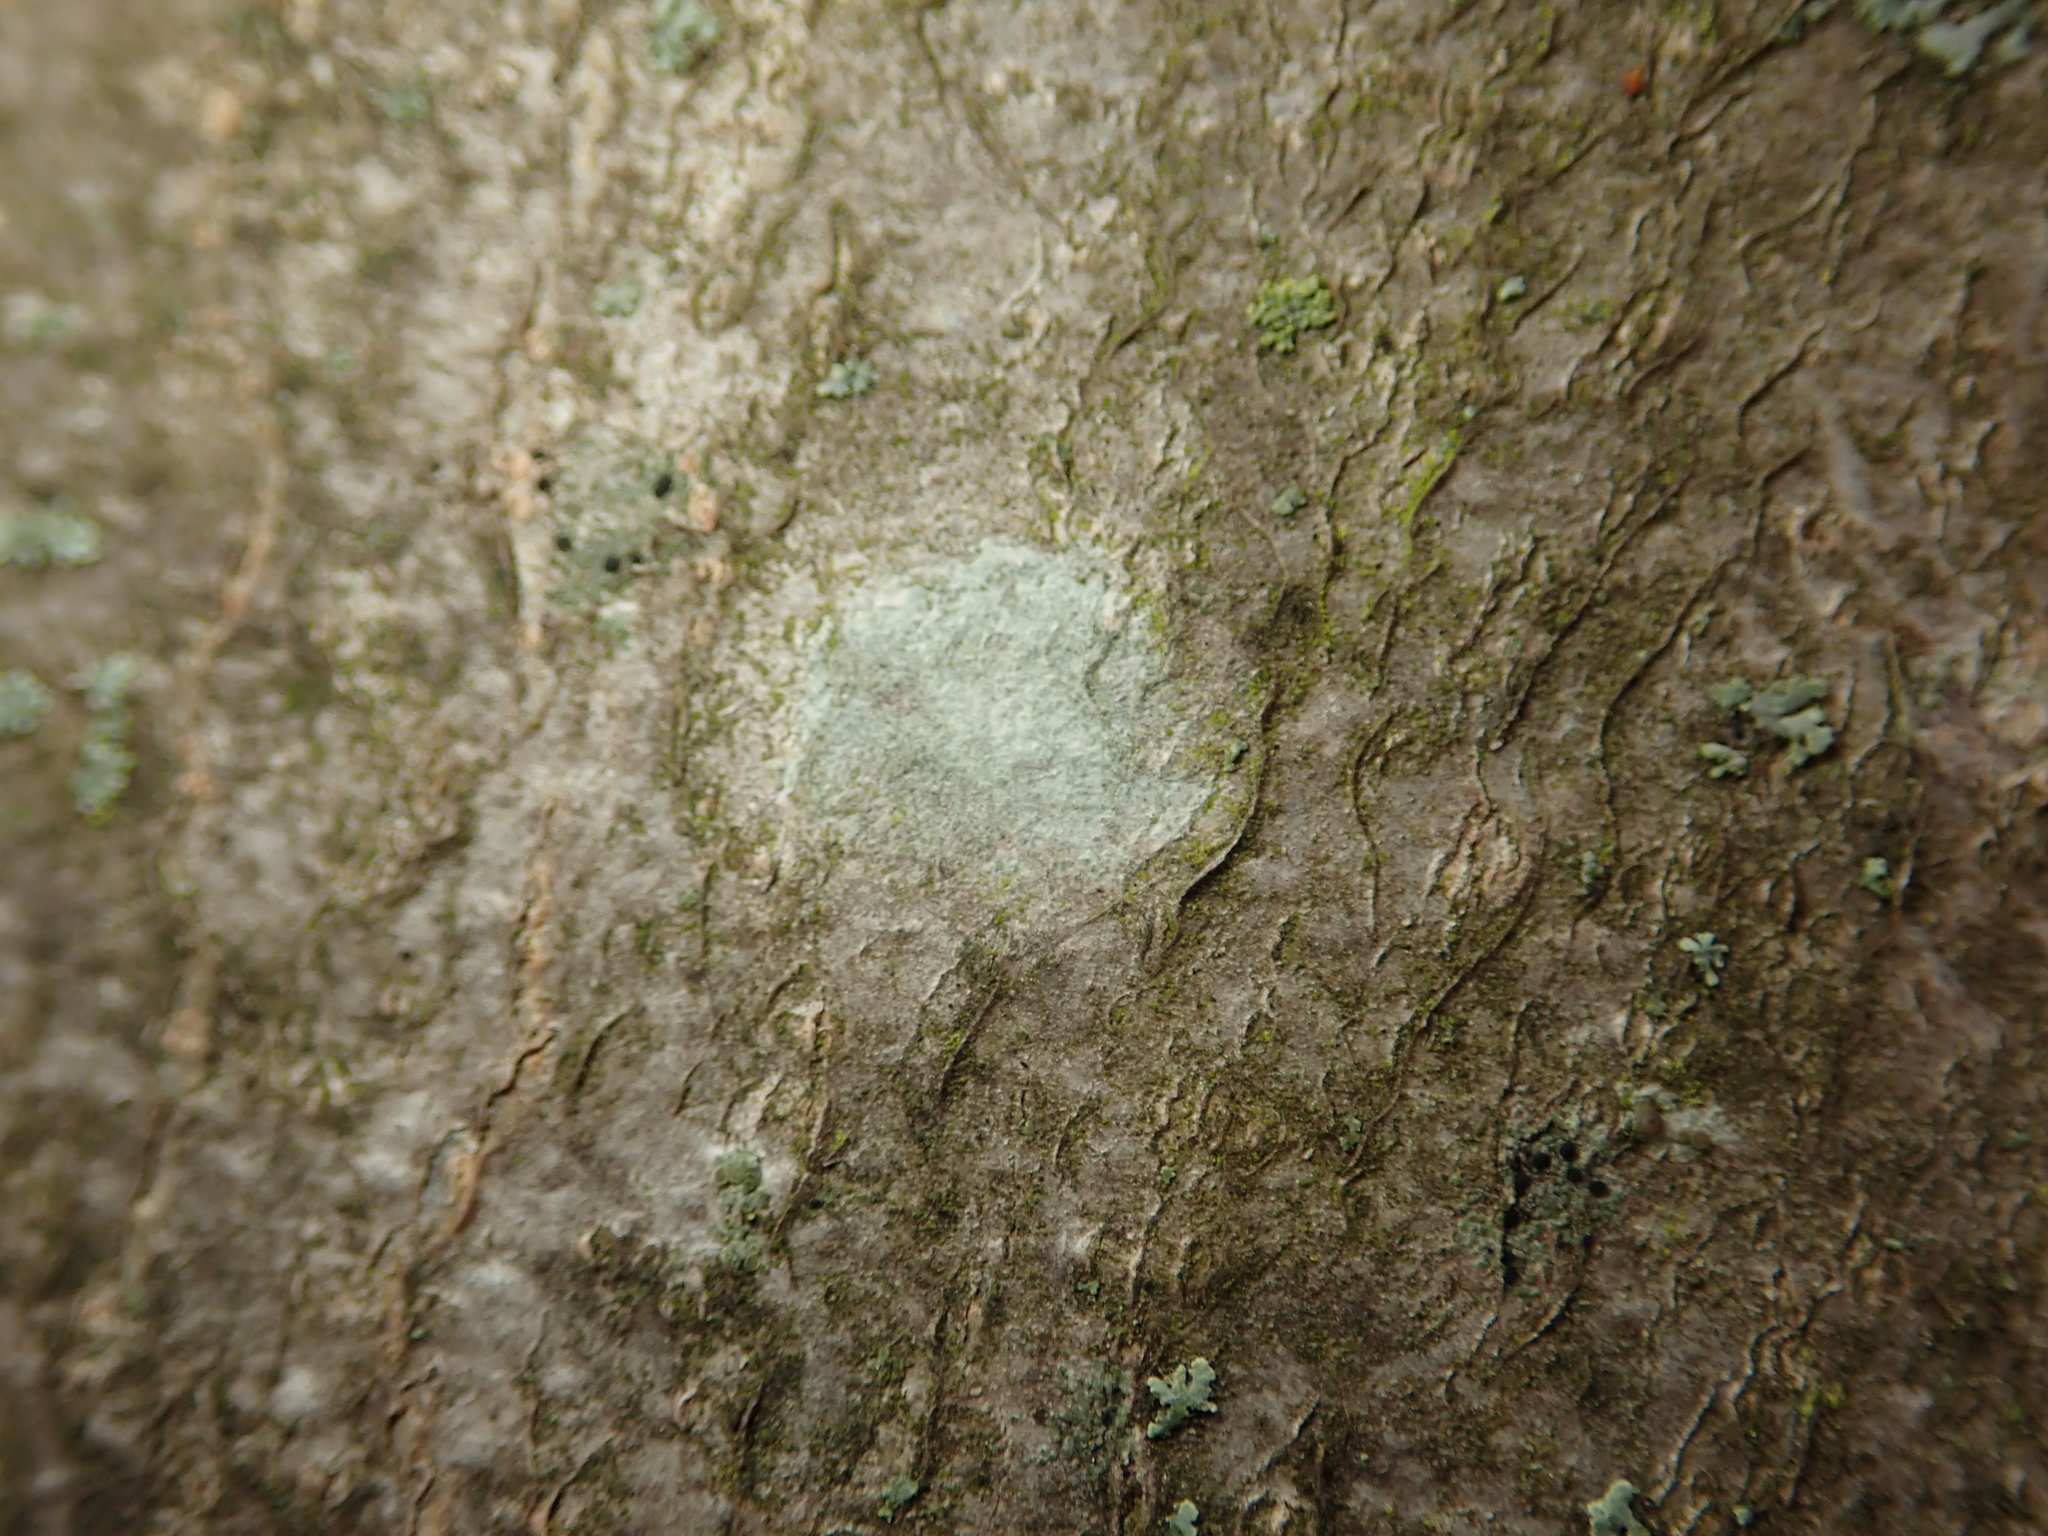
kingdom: Fungi
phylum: Ascomycota
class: Lecanoromycetes
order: Ostropales
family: Phlyctidaceae
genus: Phlyctis
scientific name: Phlyctis argena
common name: Whitewash lichen
